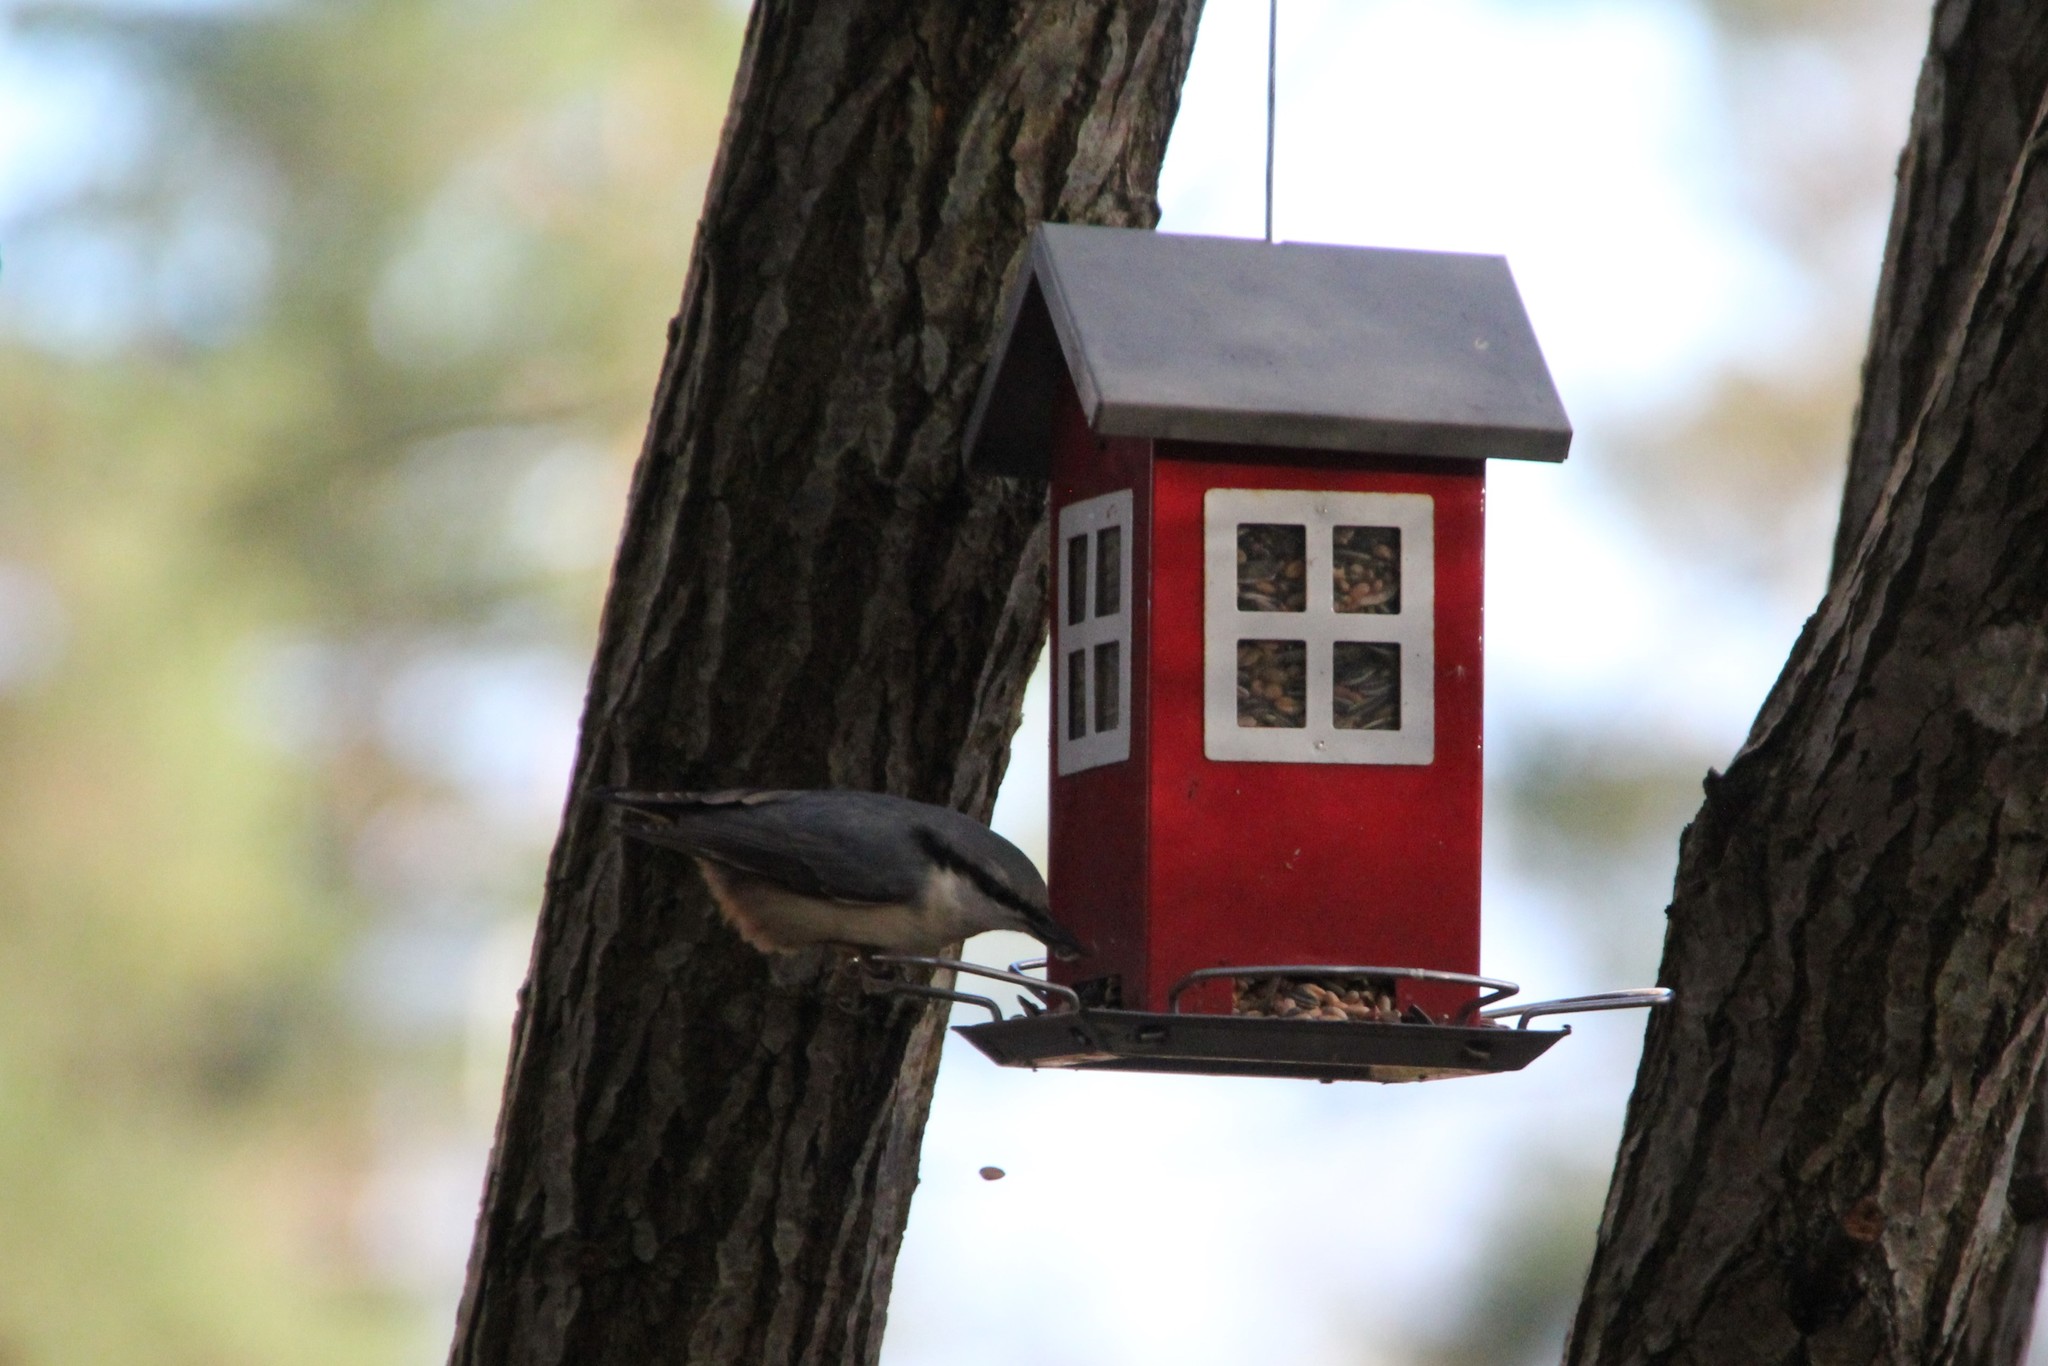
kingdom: Animalia
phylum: Chordata
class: Aves
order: Passeriformes
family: Sittidae
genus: Sitta
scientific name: Sitta europaea
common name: Eurasian nuthatch
